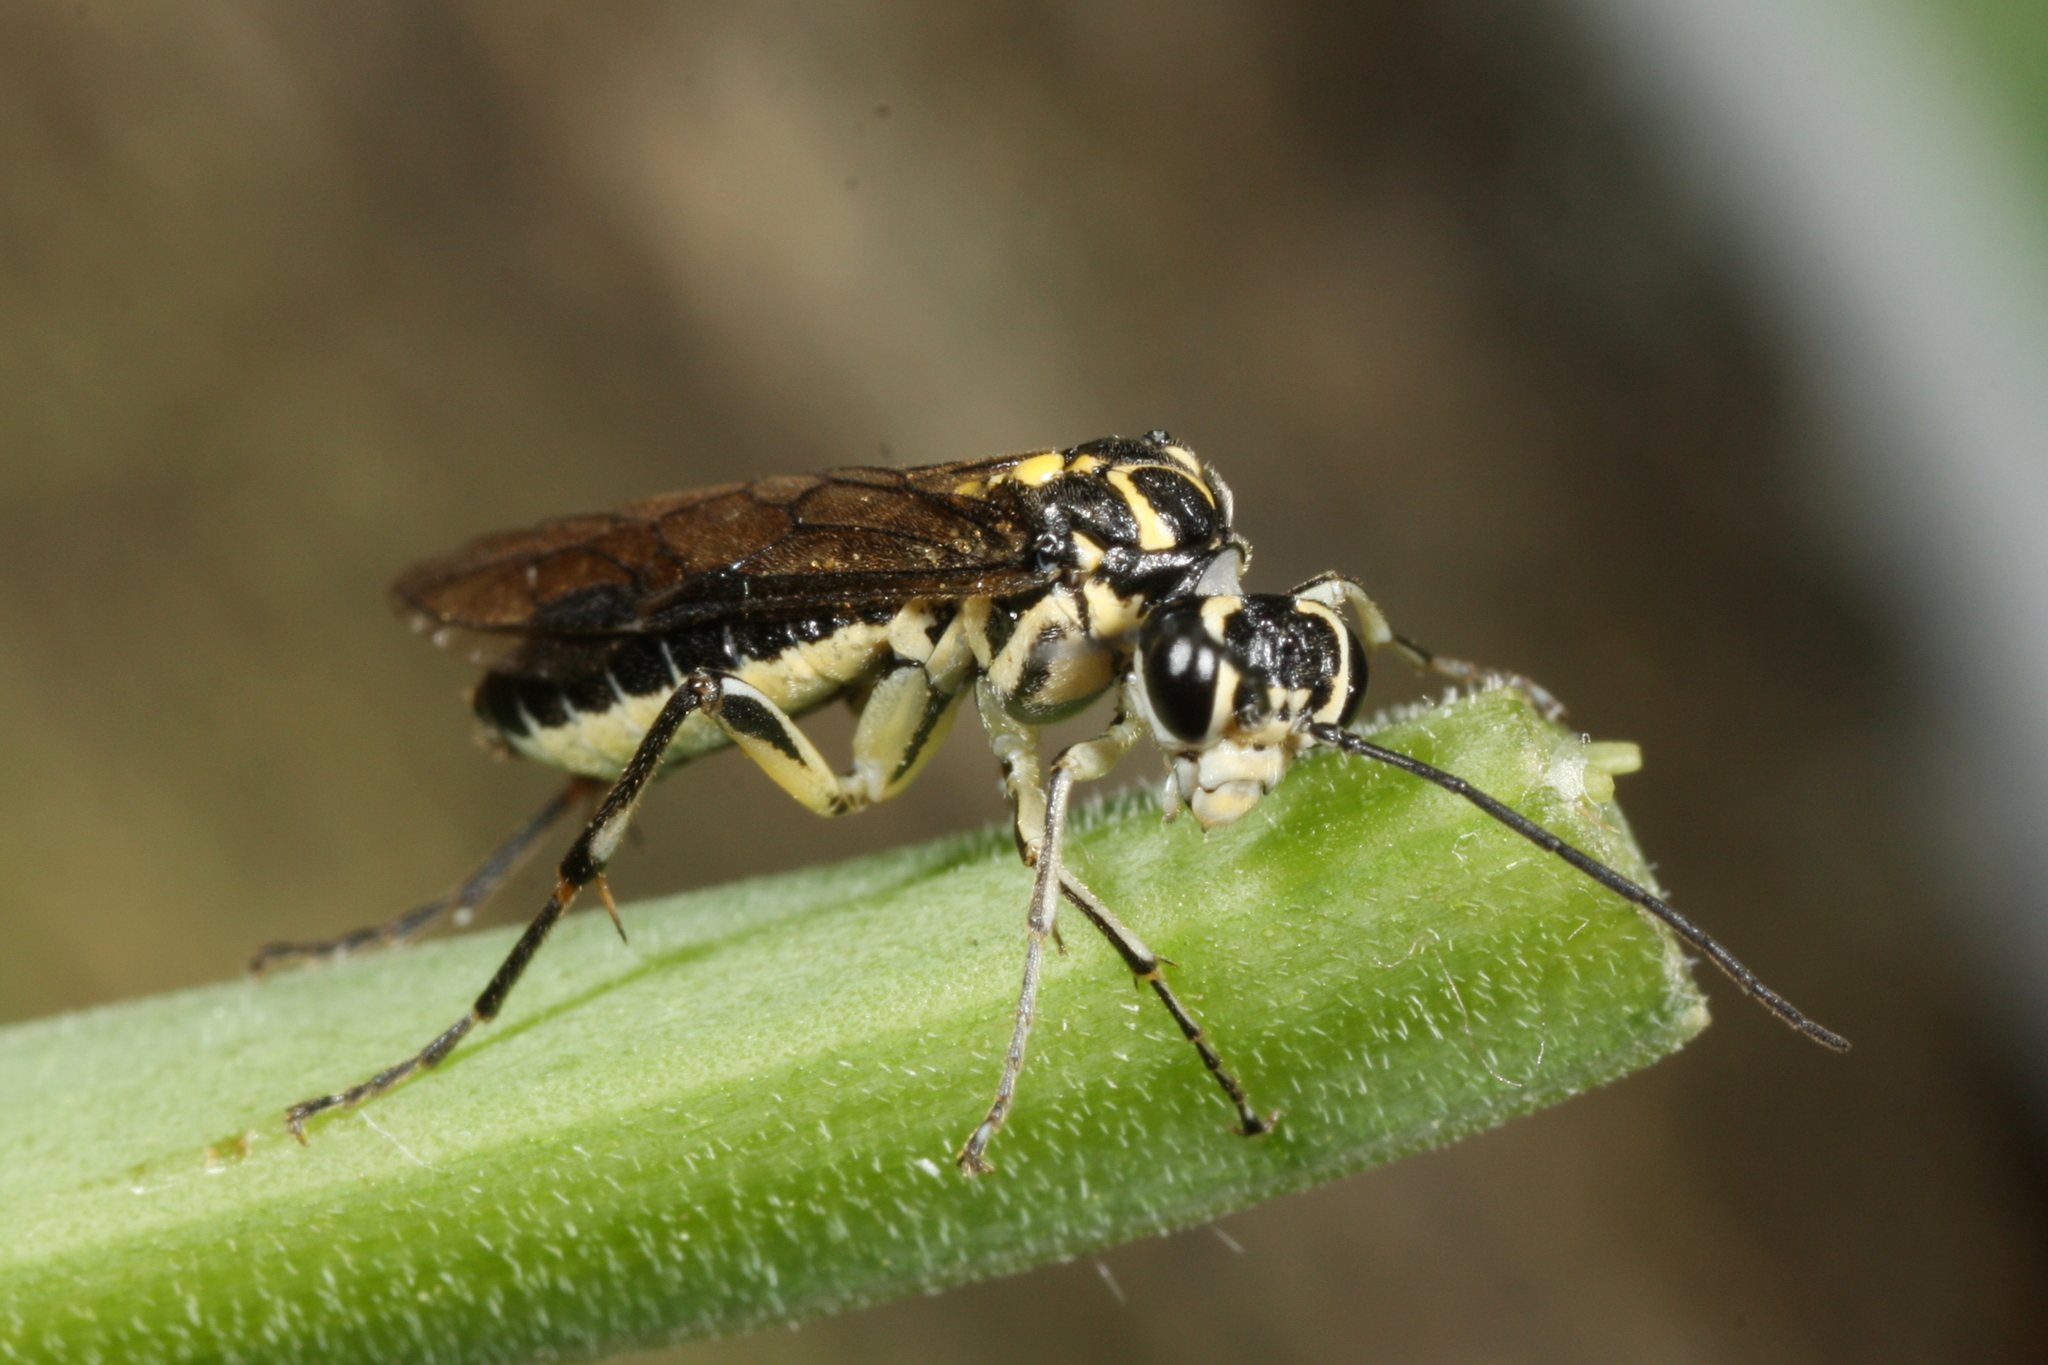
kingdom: Animalia
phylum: Arthropoda
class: Insecta
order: Hymenoptera
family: Tenthredinidae
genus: Pachyprotasis
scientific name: Pachyprotasis rapae
